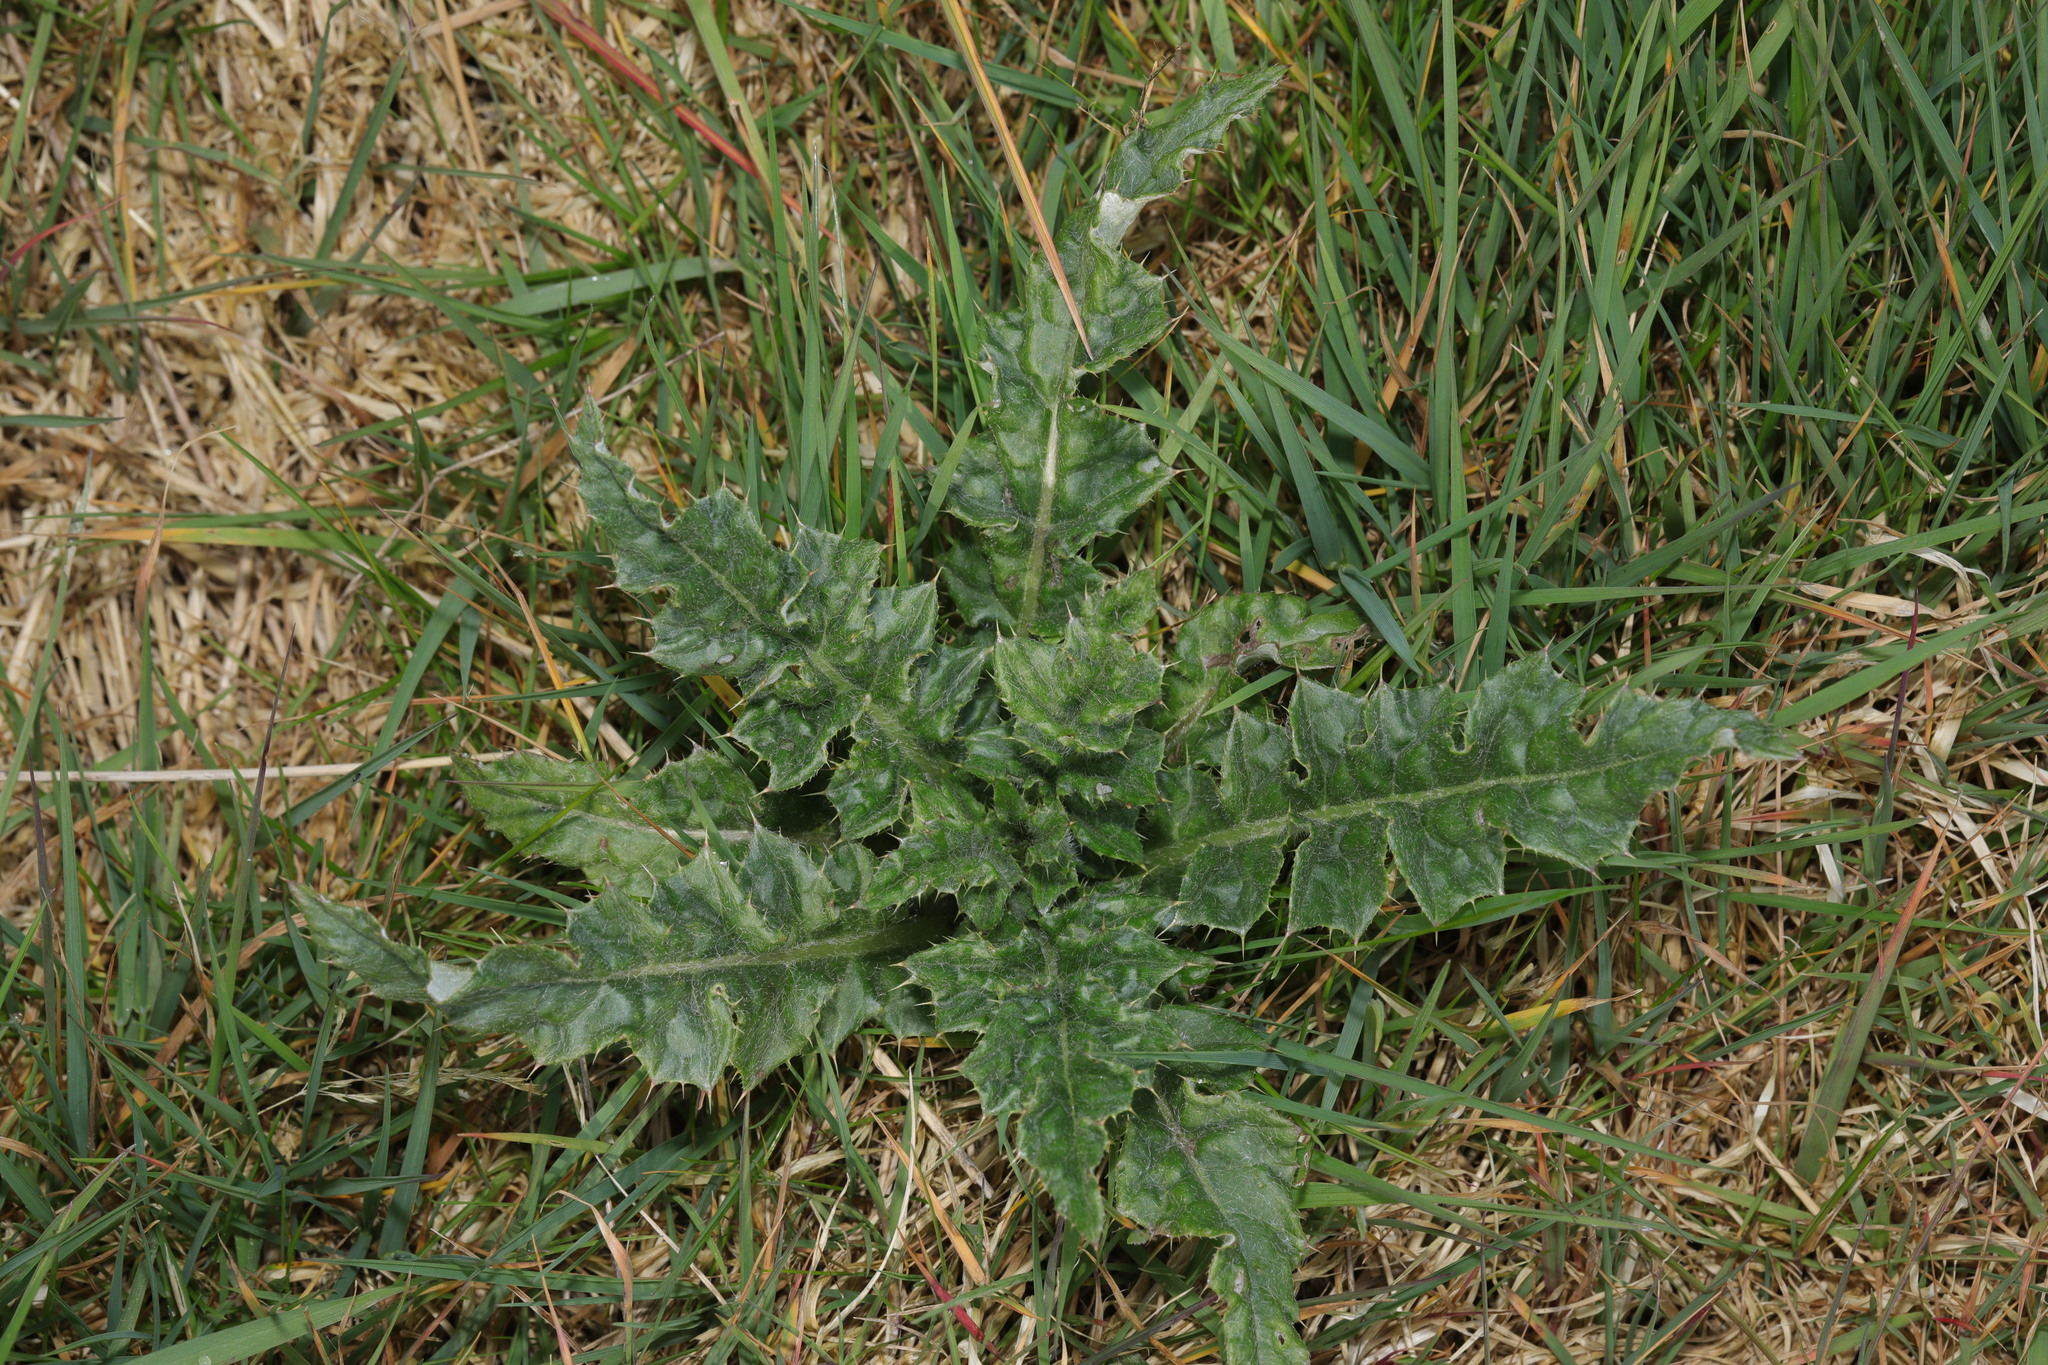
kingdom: Plantae
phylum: Tracheophyta
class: Magnoliopsida
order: Asterales
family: Asteraceae
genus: Cirsium
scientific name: Cirsium arvense
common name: Creeping thistle
